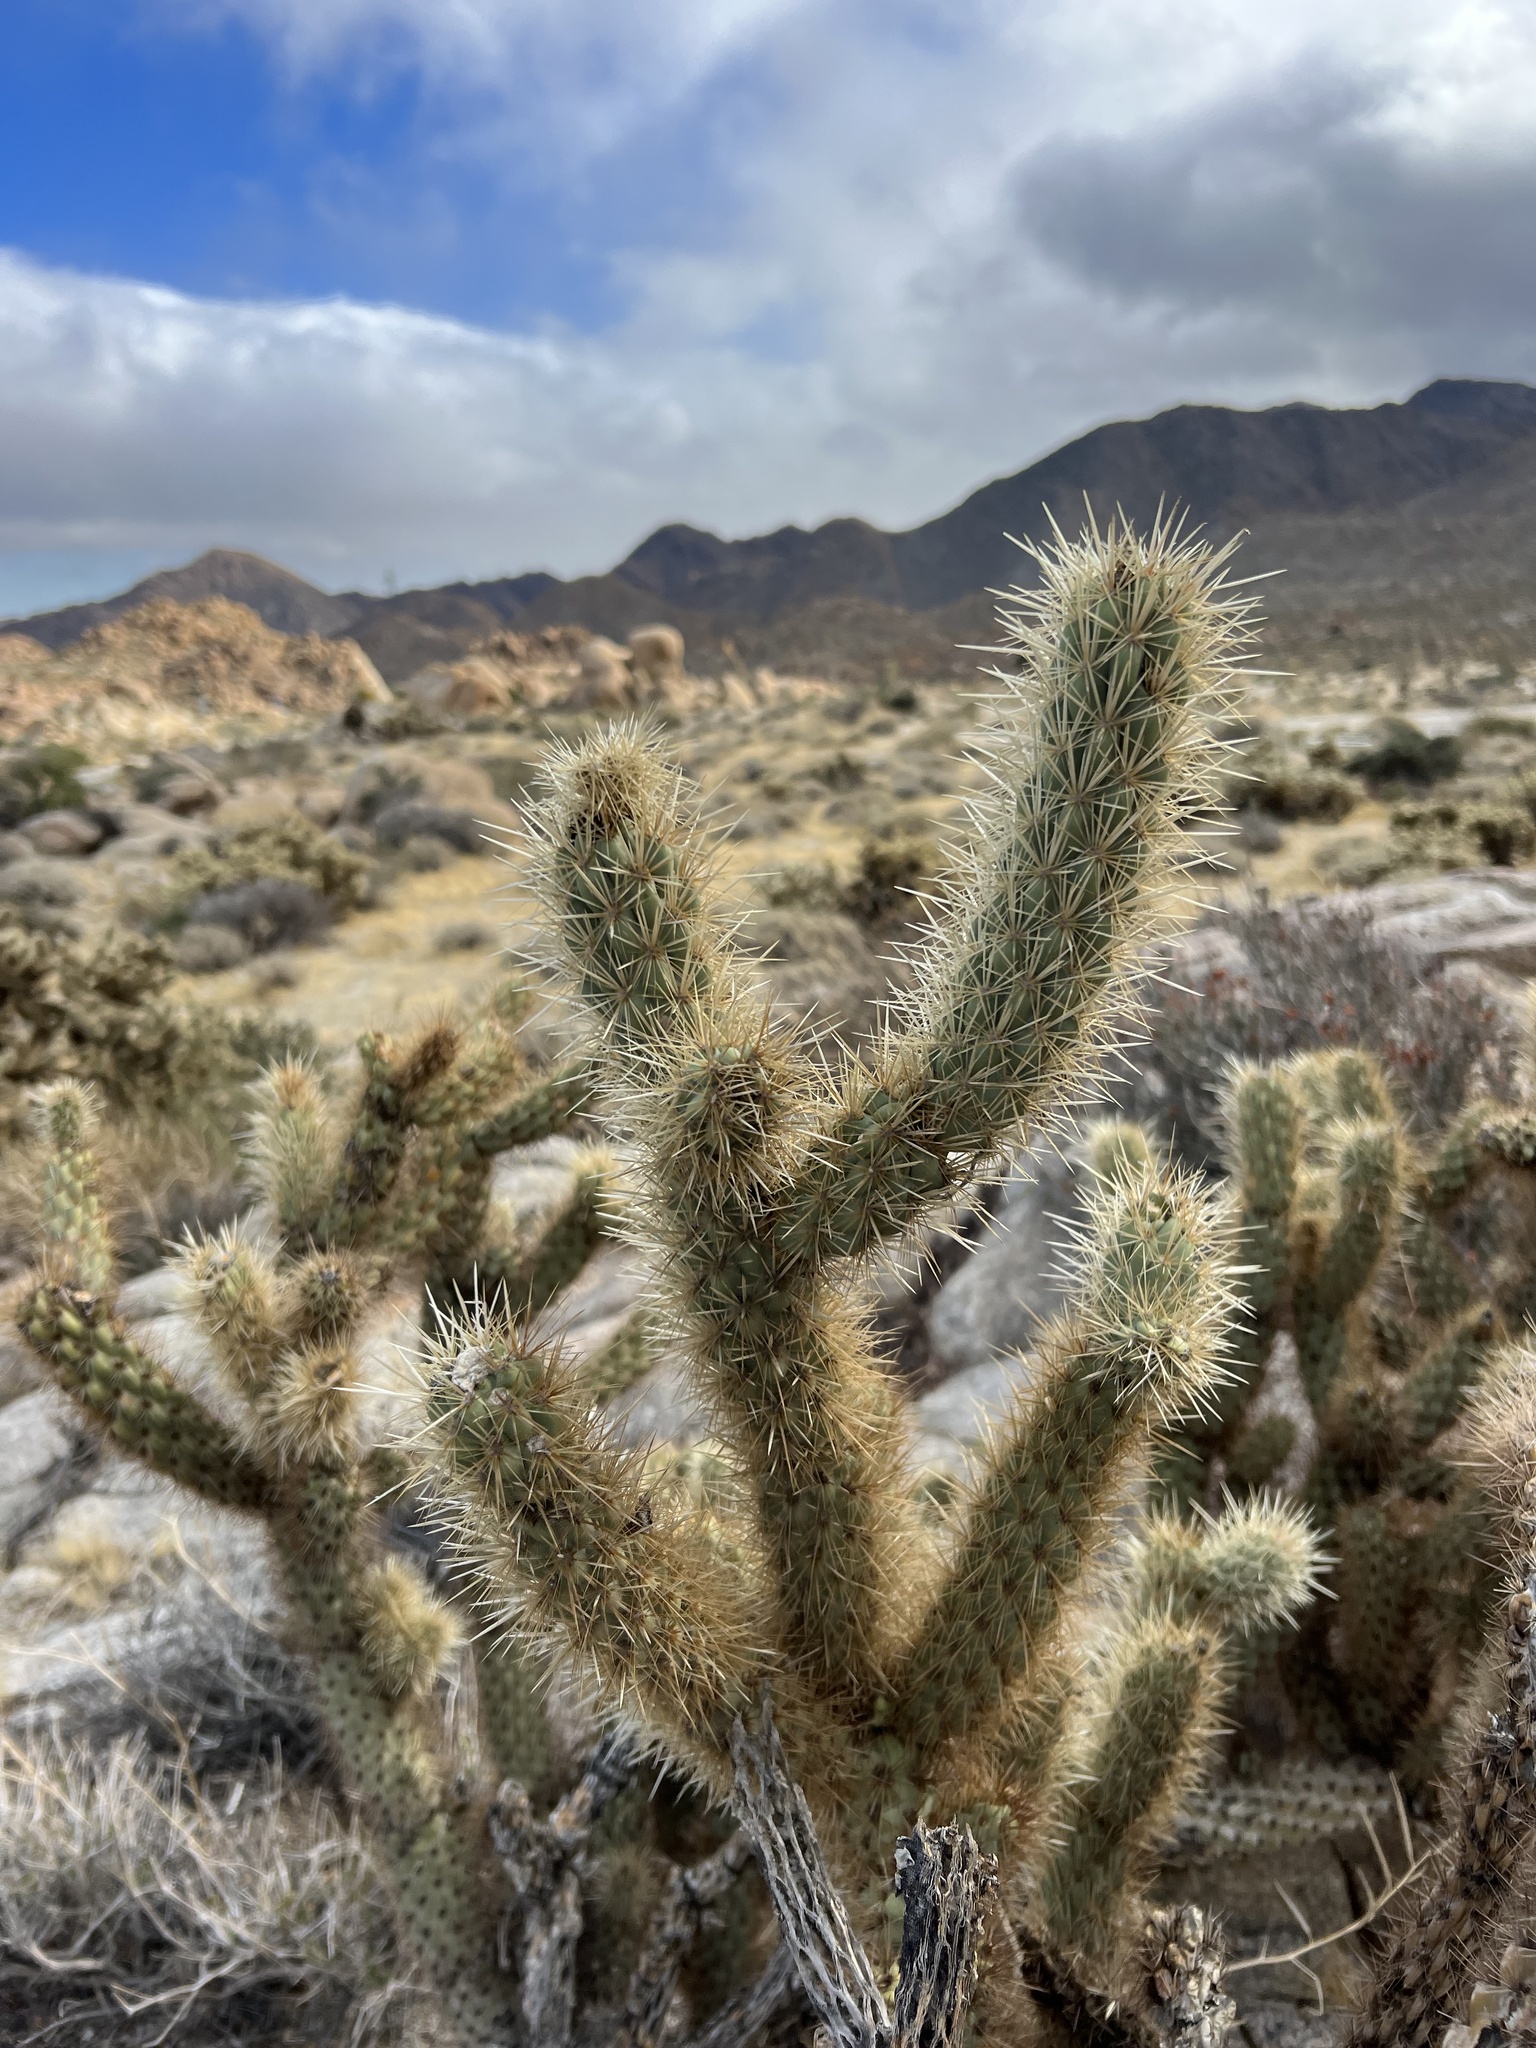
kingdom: Plantae
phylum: Tracheophyta
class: Magnoliopsida
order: Caryophyllales
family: Cactaceae
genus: Cylindropuntia
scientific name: Cylindropuntia ganderi
